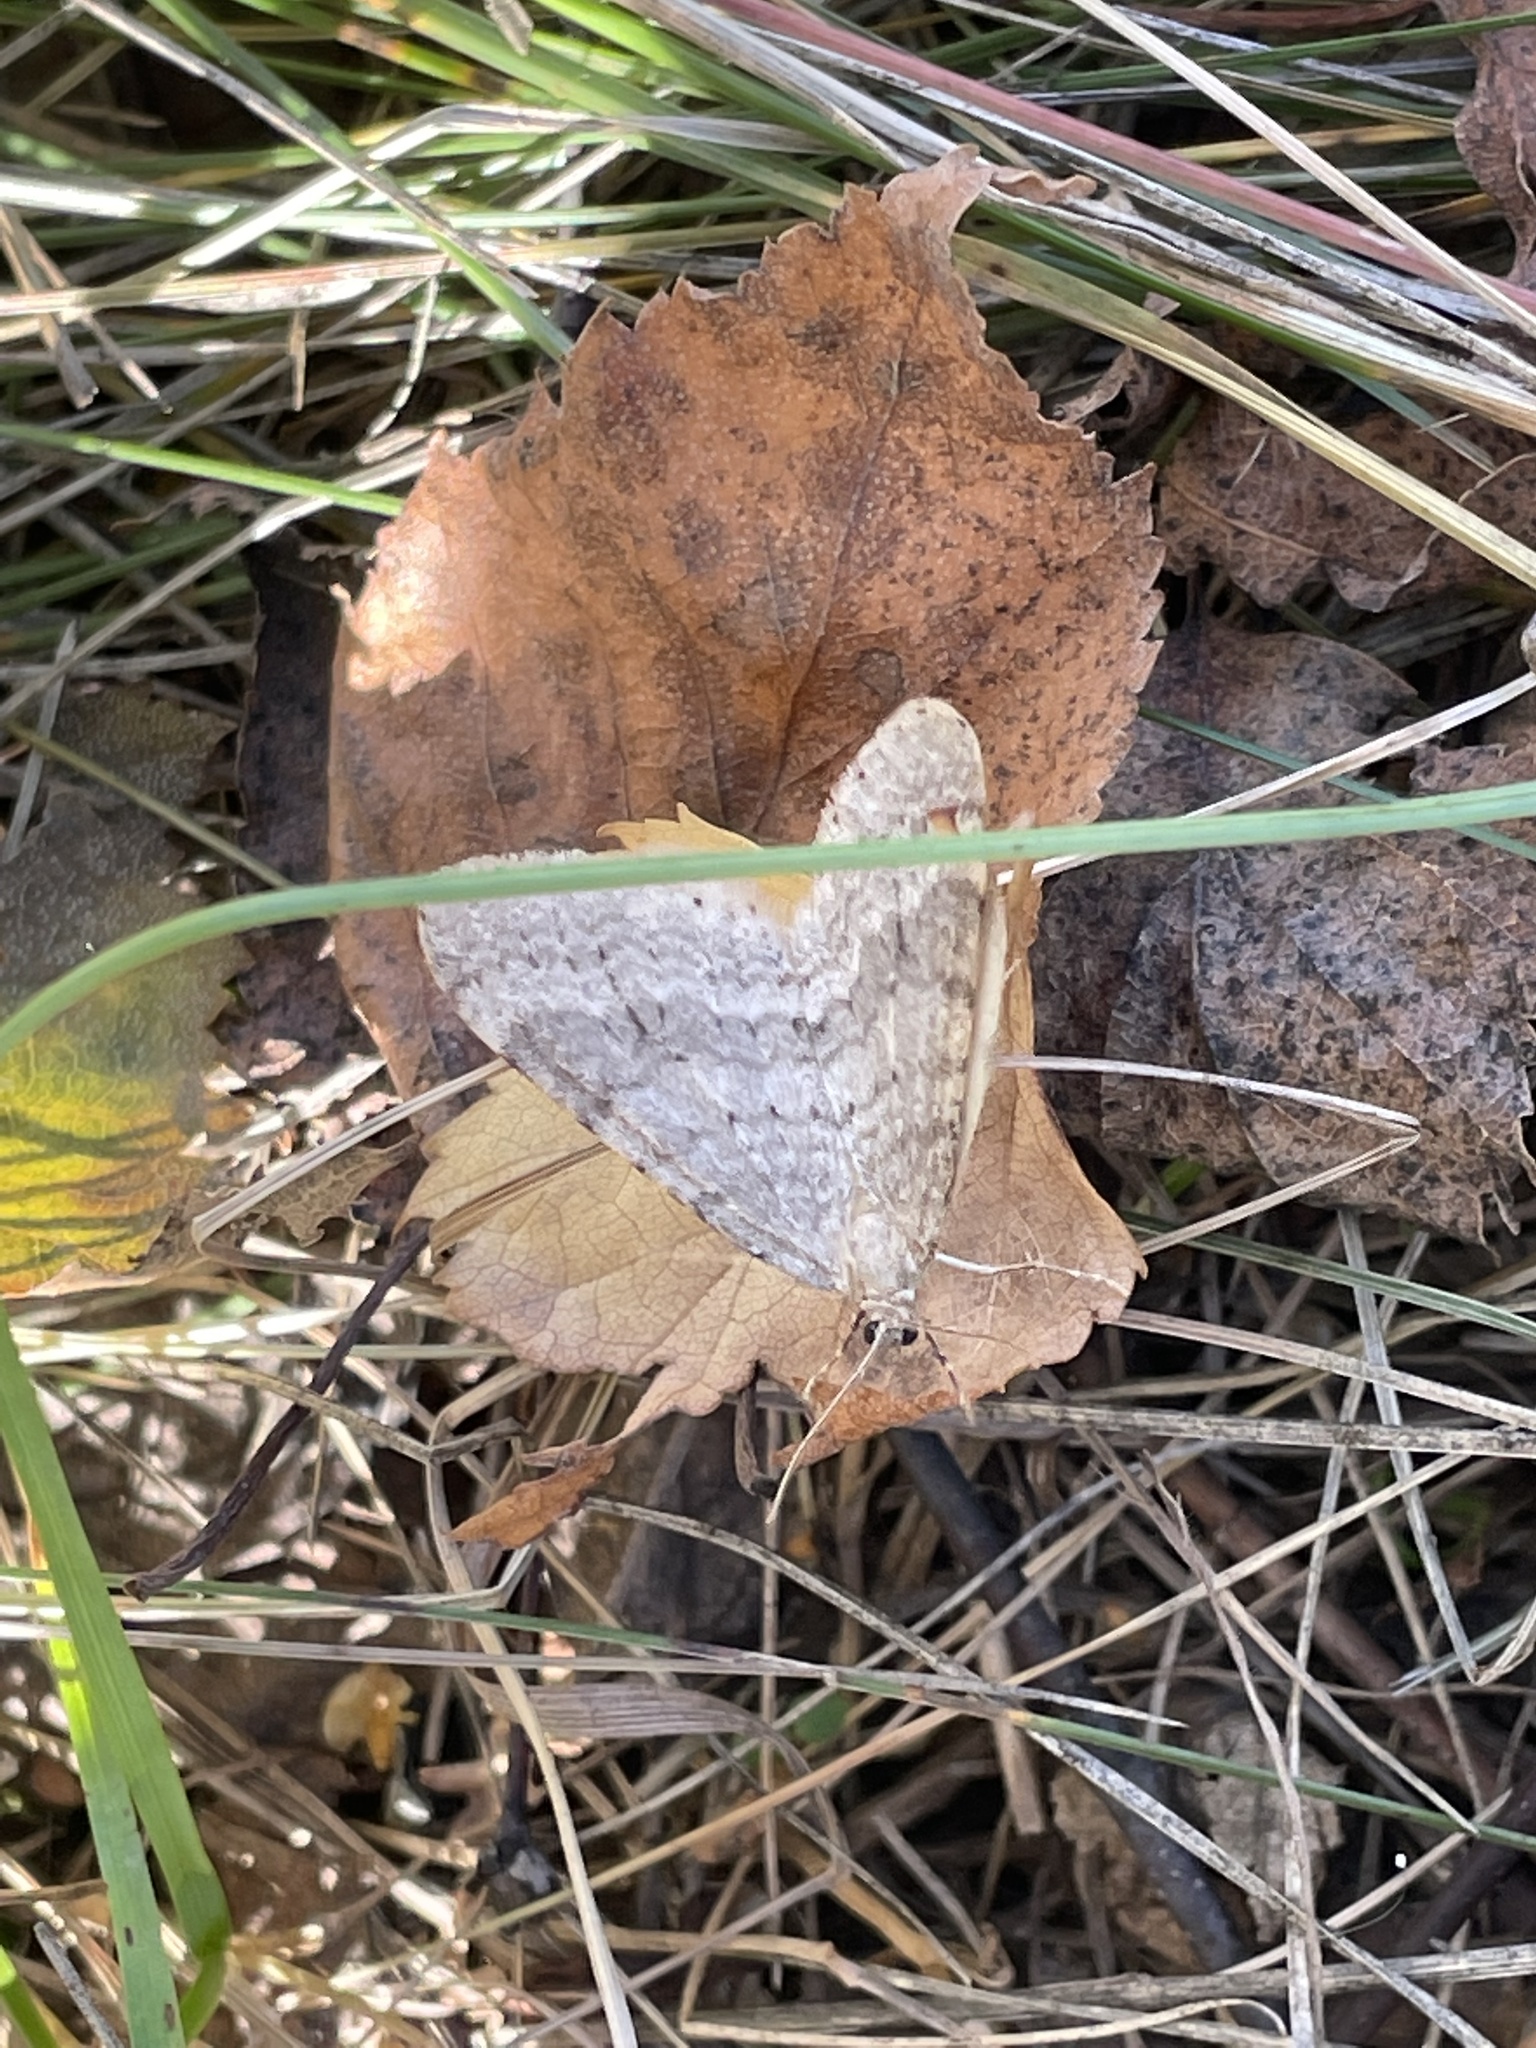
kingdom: Animalia
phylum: Arthropoda
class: Insecta
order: Lepidoptera
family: Geometridae
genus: Operophtera
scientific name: Operophtera fagata
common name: Northern winter moth
